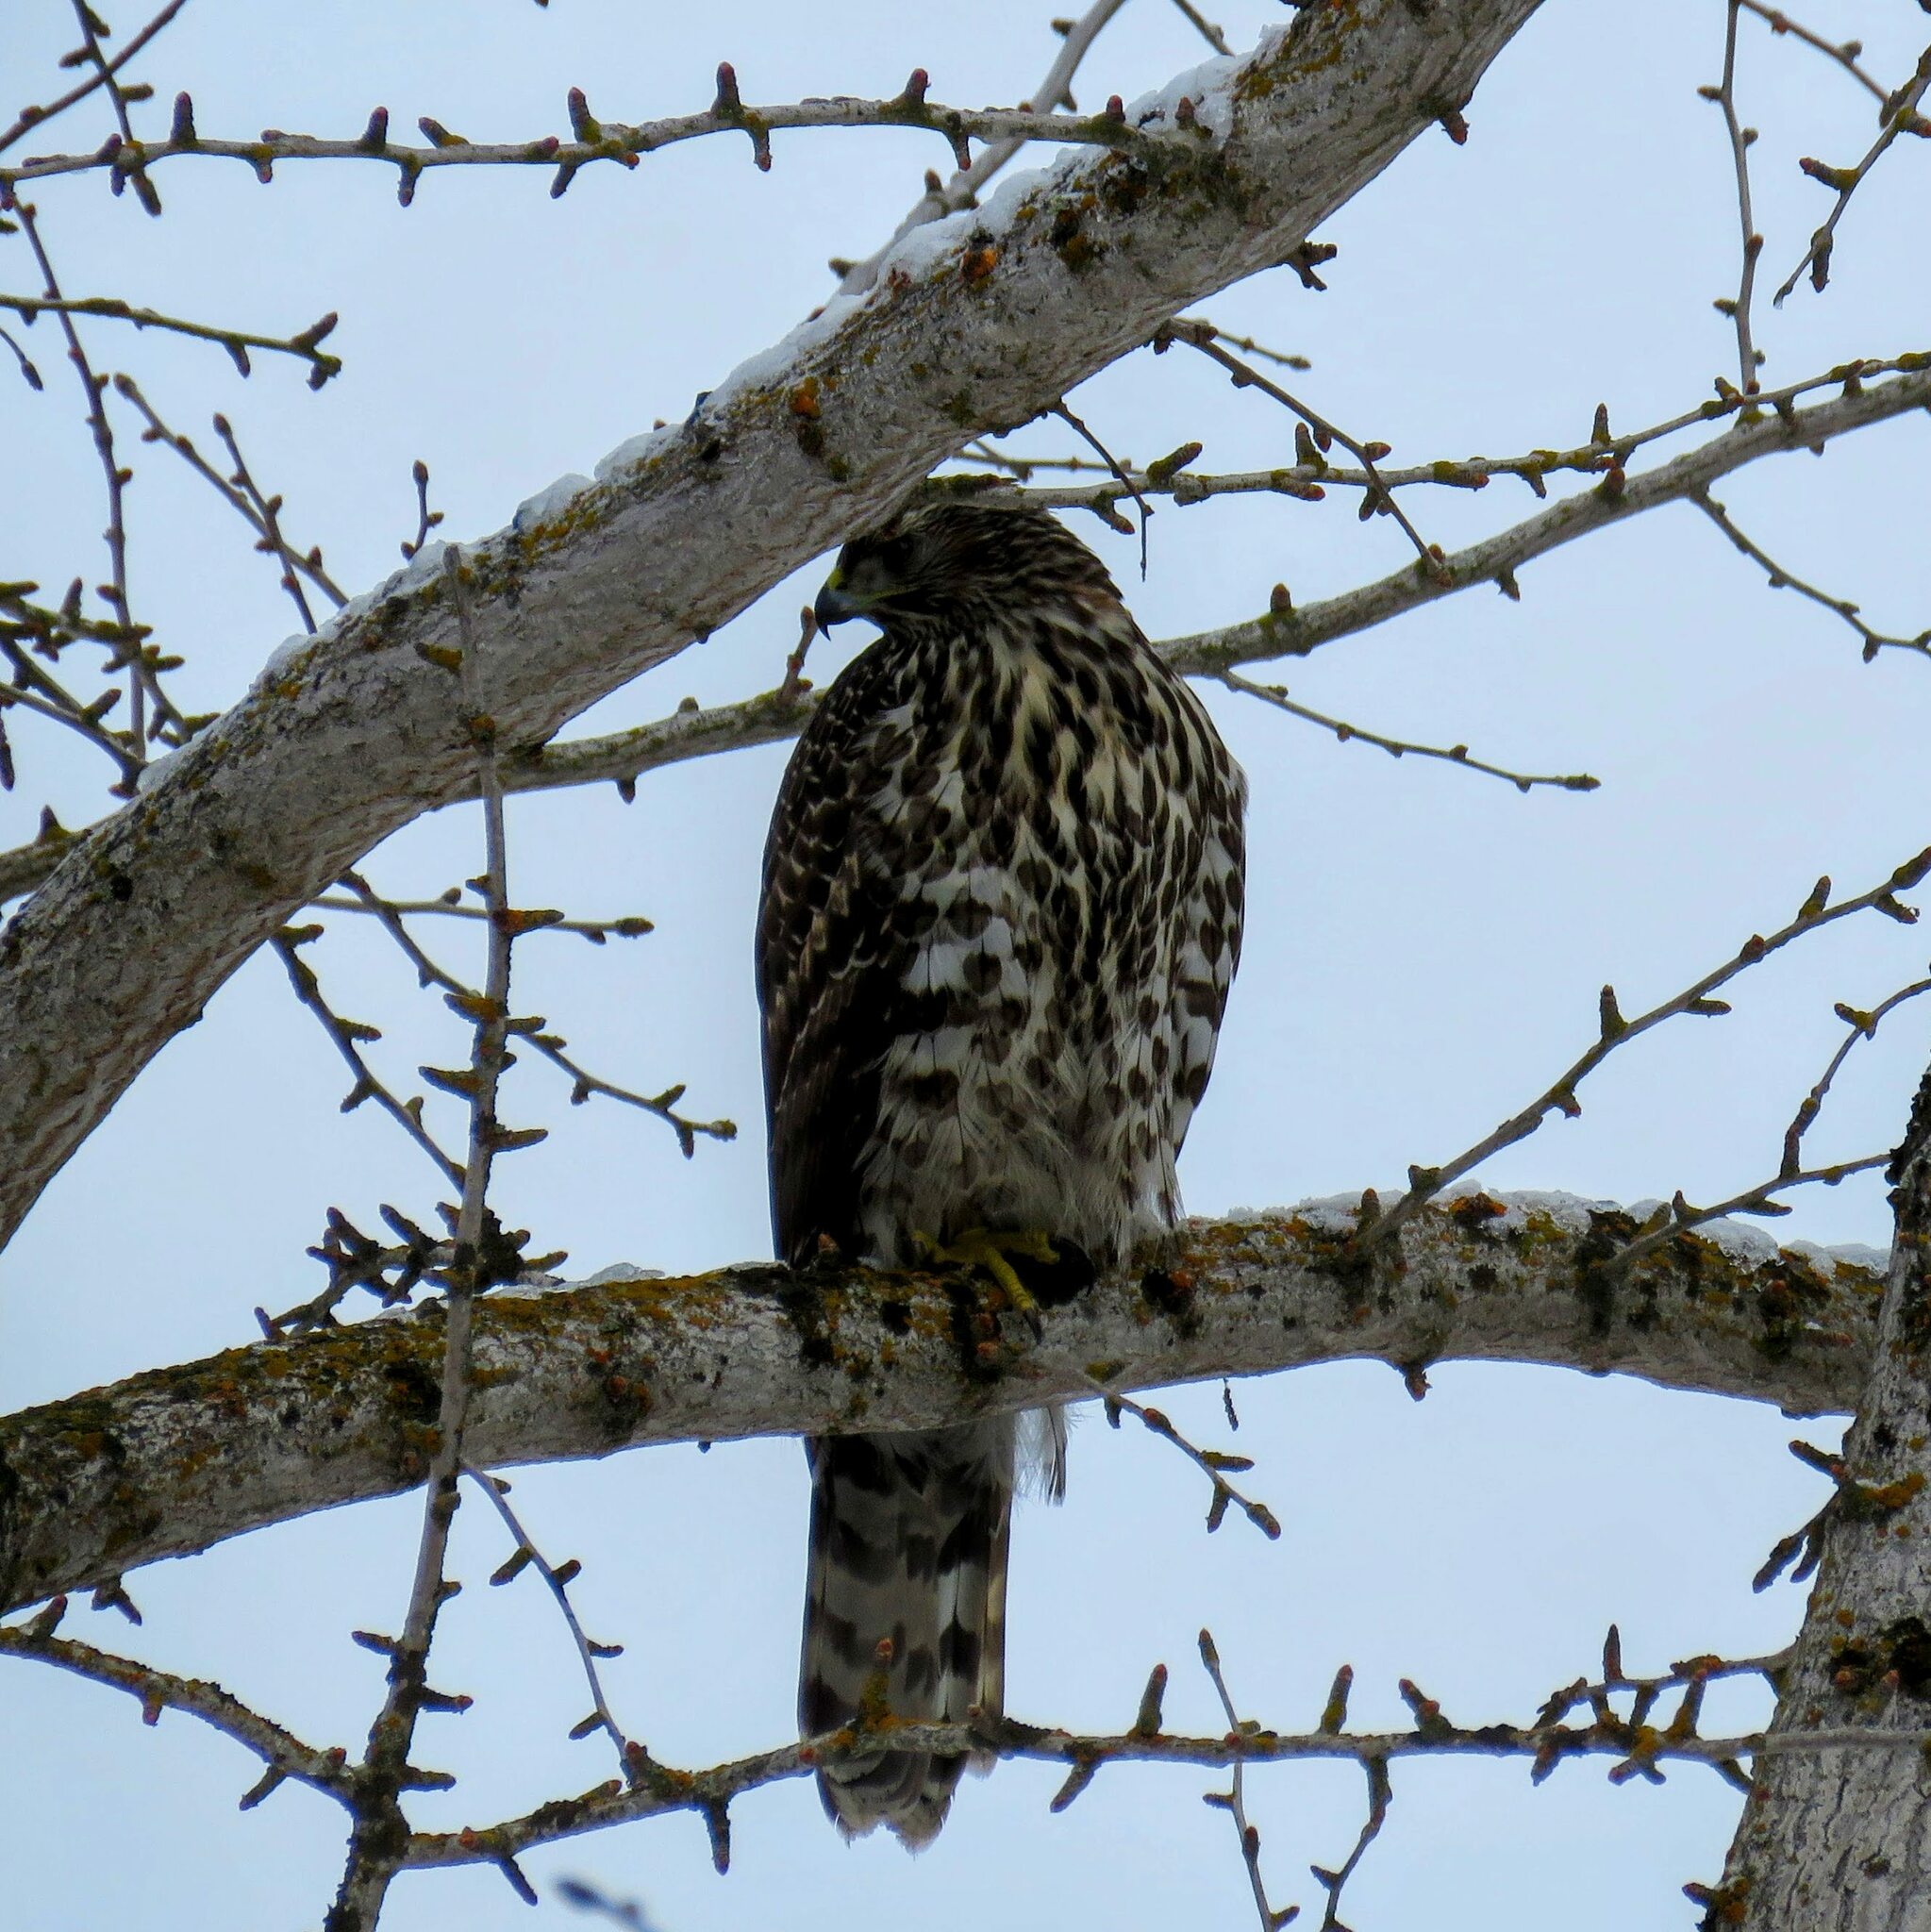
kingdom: Animalia
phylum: Chordata
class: Aves
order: Accipitriformes
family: Accipitridae
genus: Accipiter
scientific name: Accipiter gentilis
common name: Northern goshawk
